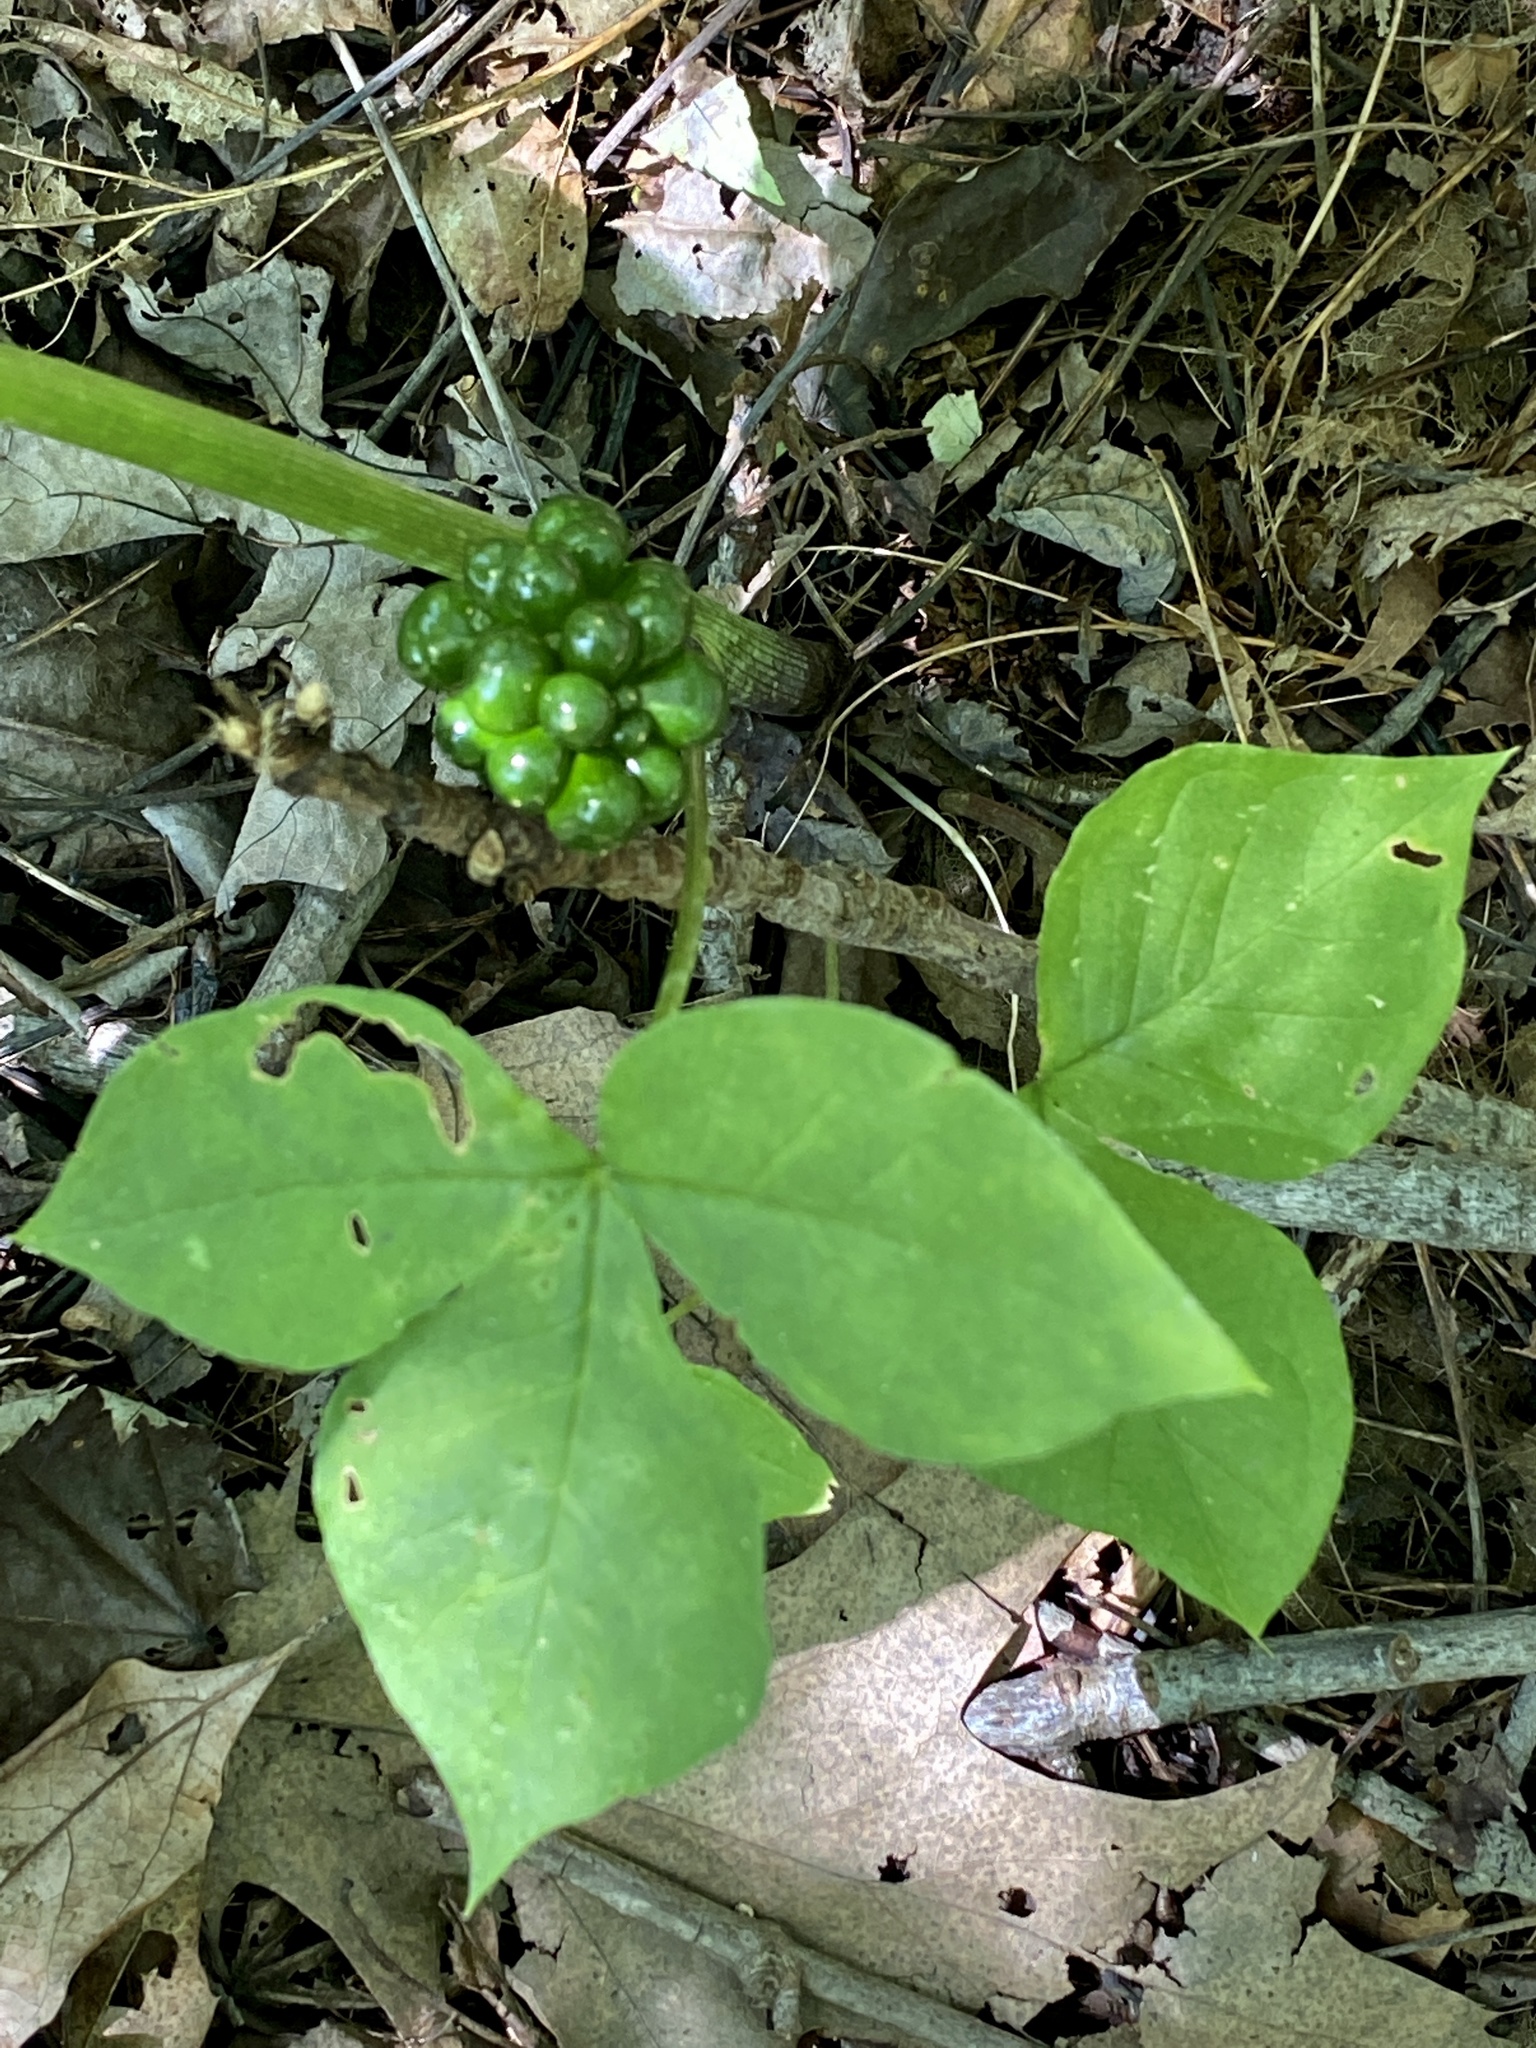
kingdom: Plantae
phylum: Tracheophyta
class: Liliopsida
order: Alismatales
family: Araceae
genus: Arisaema
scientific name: Arisaema triphyllum
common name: Jack-in-the-pulpit
